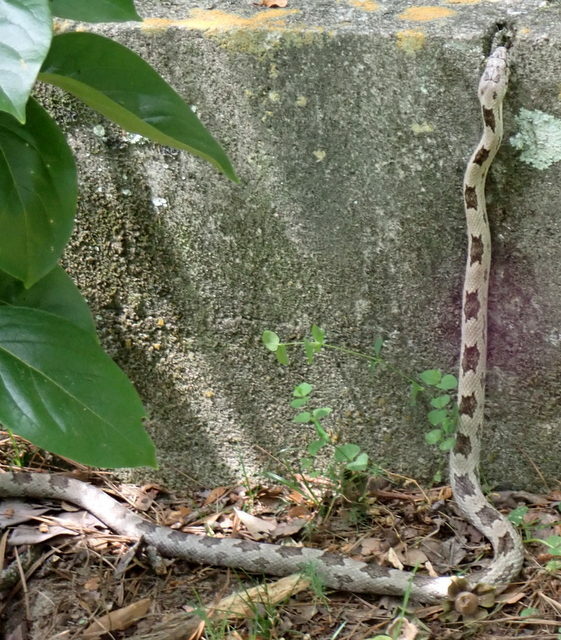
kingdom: Animalia
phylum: Chordata
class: Squamata
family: Colubridae
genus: Pantherophis
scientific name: Pantherophis spiloides
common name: Gray rat snake
